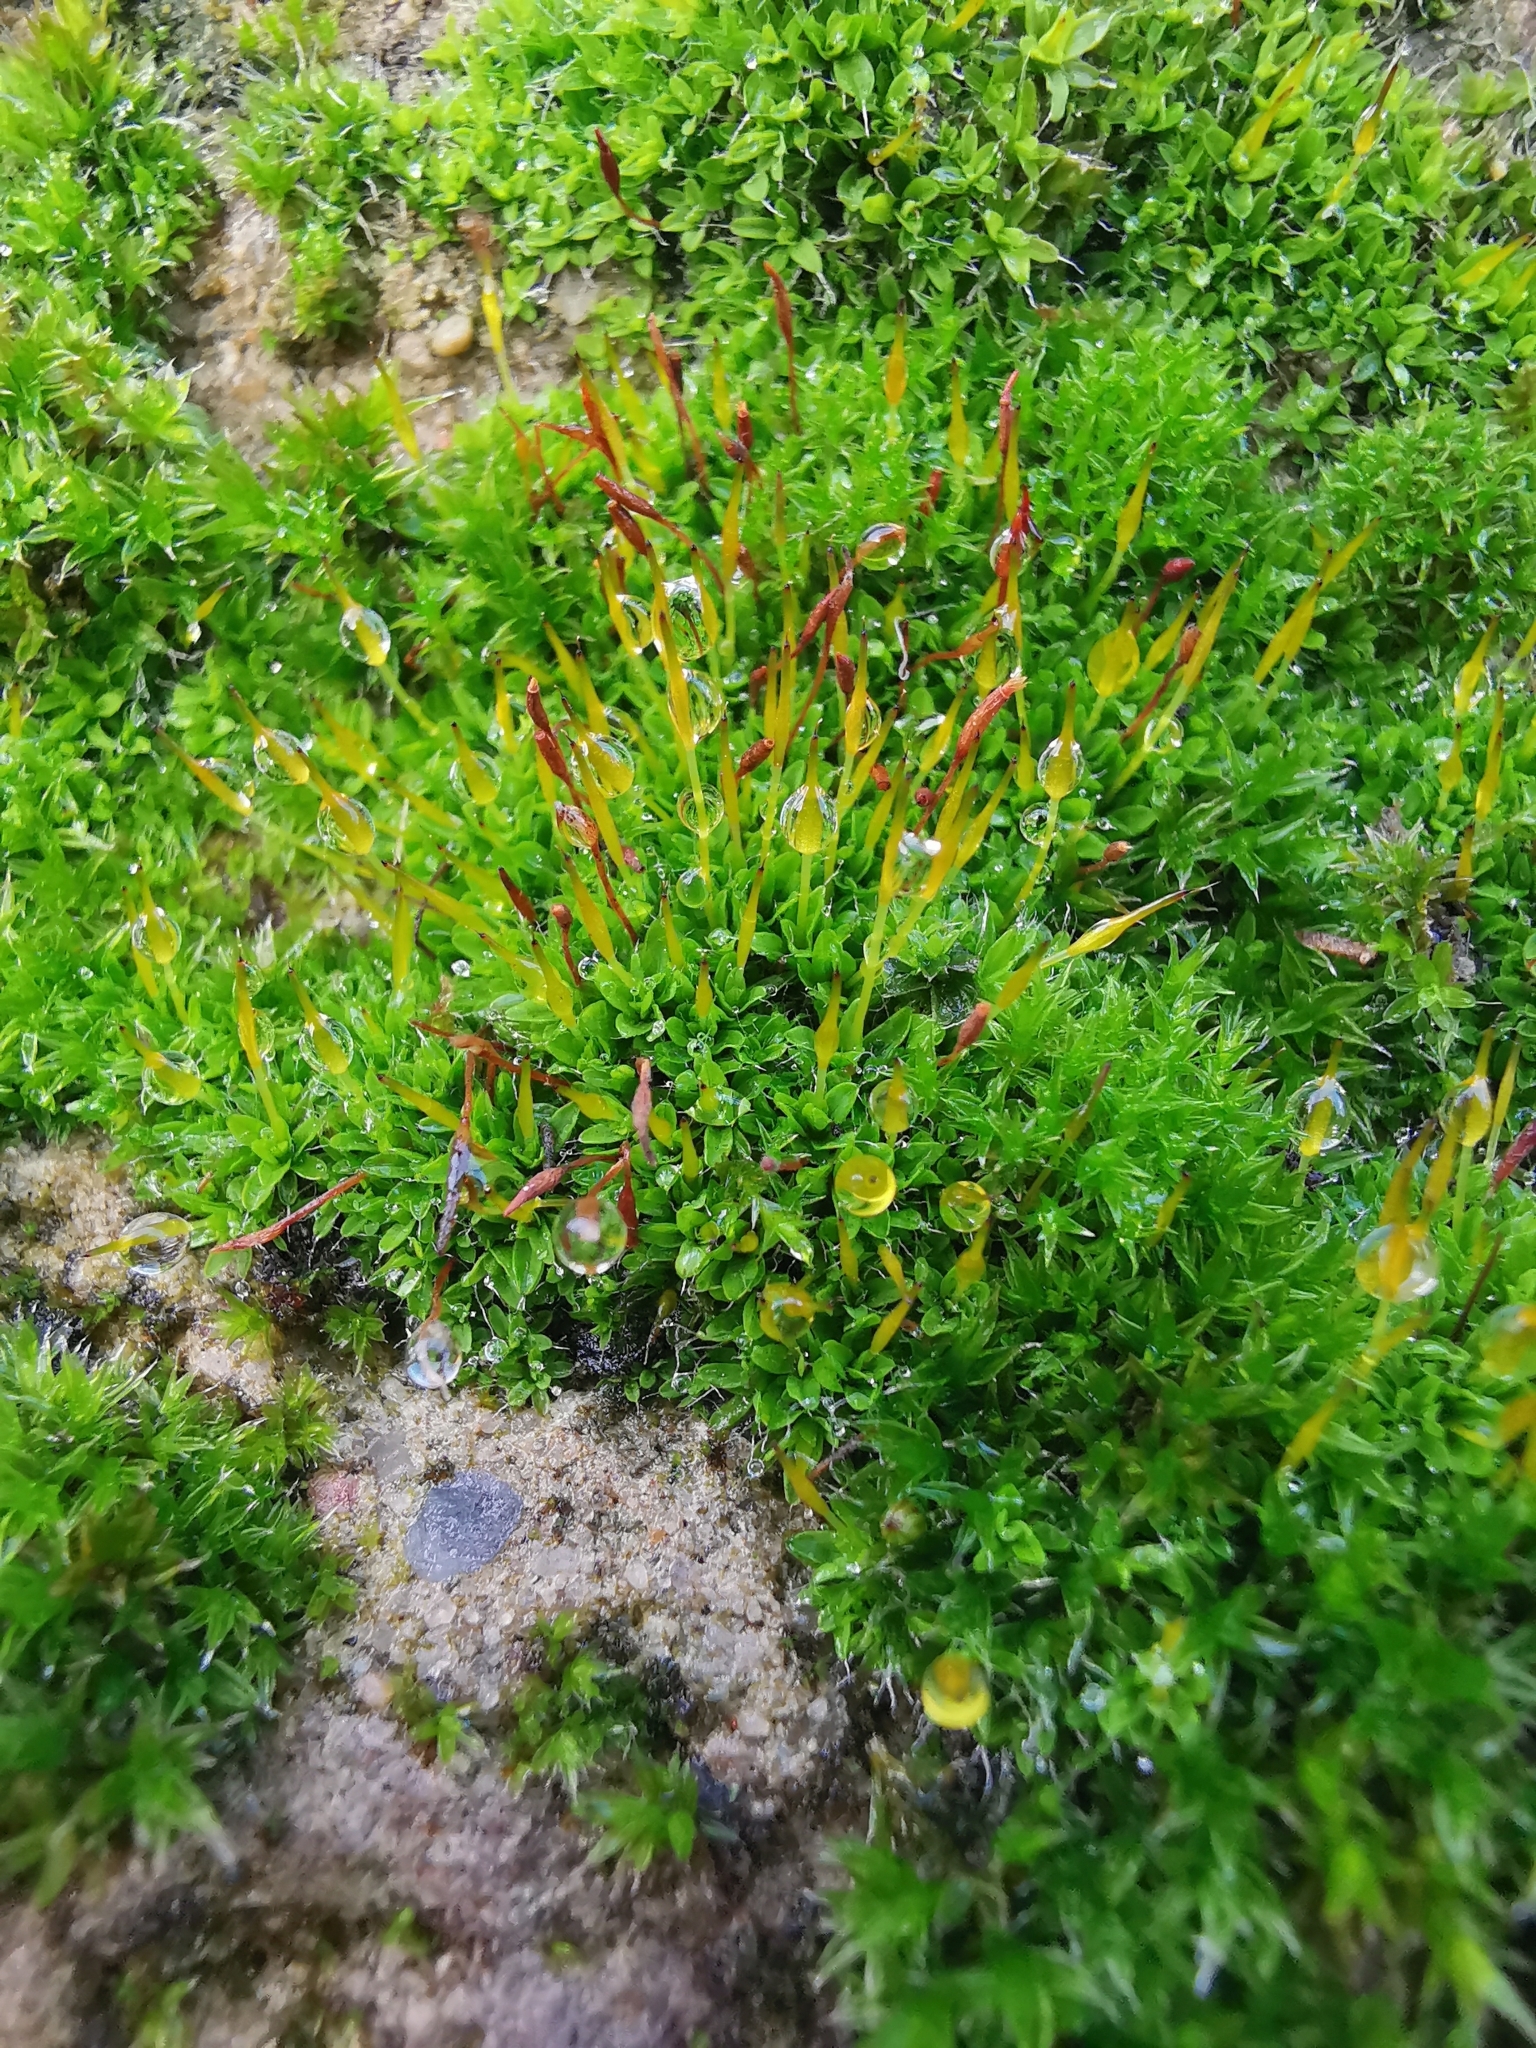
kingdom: Plantae
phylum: Bryophyta
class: Bryopsida
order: Pottiales
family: Pottiaceae
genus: Tortula
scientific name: Tortula muralis
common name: Wall screw-moss
